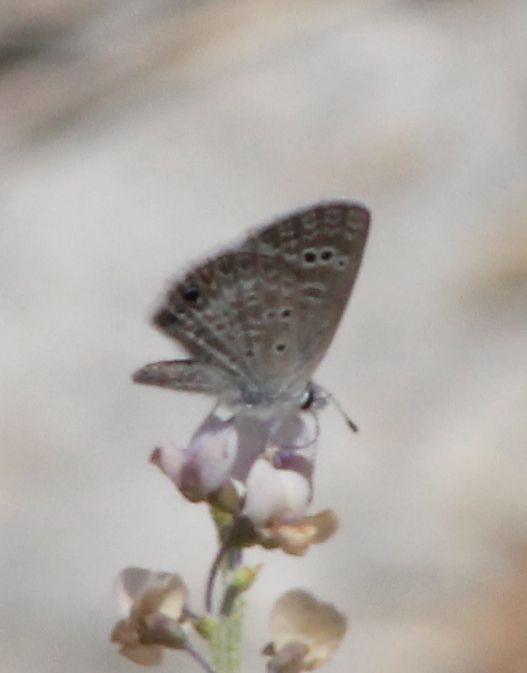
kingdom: Animalia
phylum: Arthropoda
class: Insecta
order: Lepidoptera
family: Lycaenidae
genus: Echinargus
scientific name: Echinargus isola
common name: Reakirt's blue
